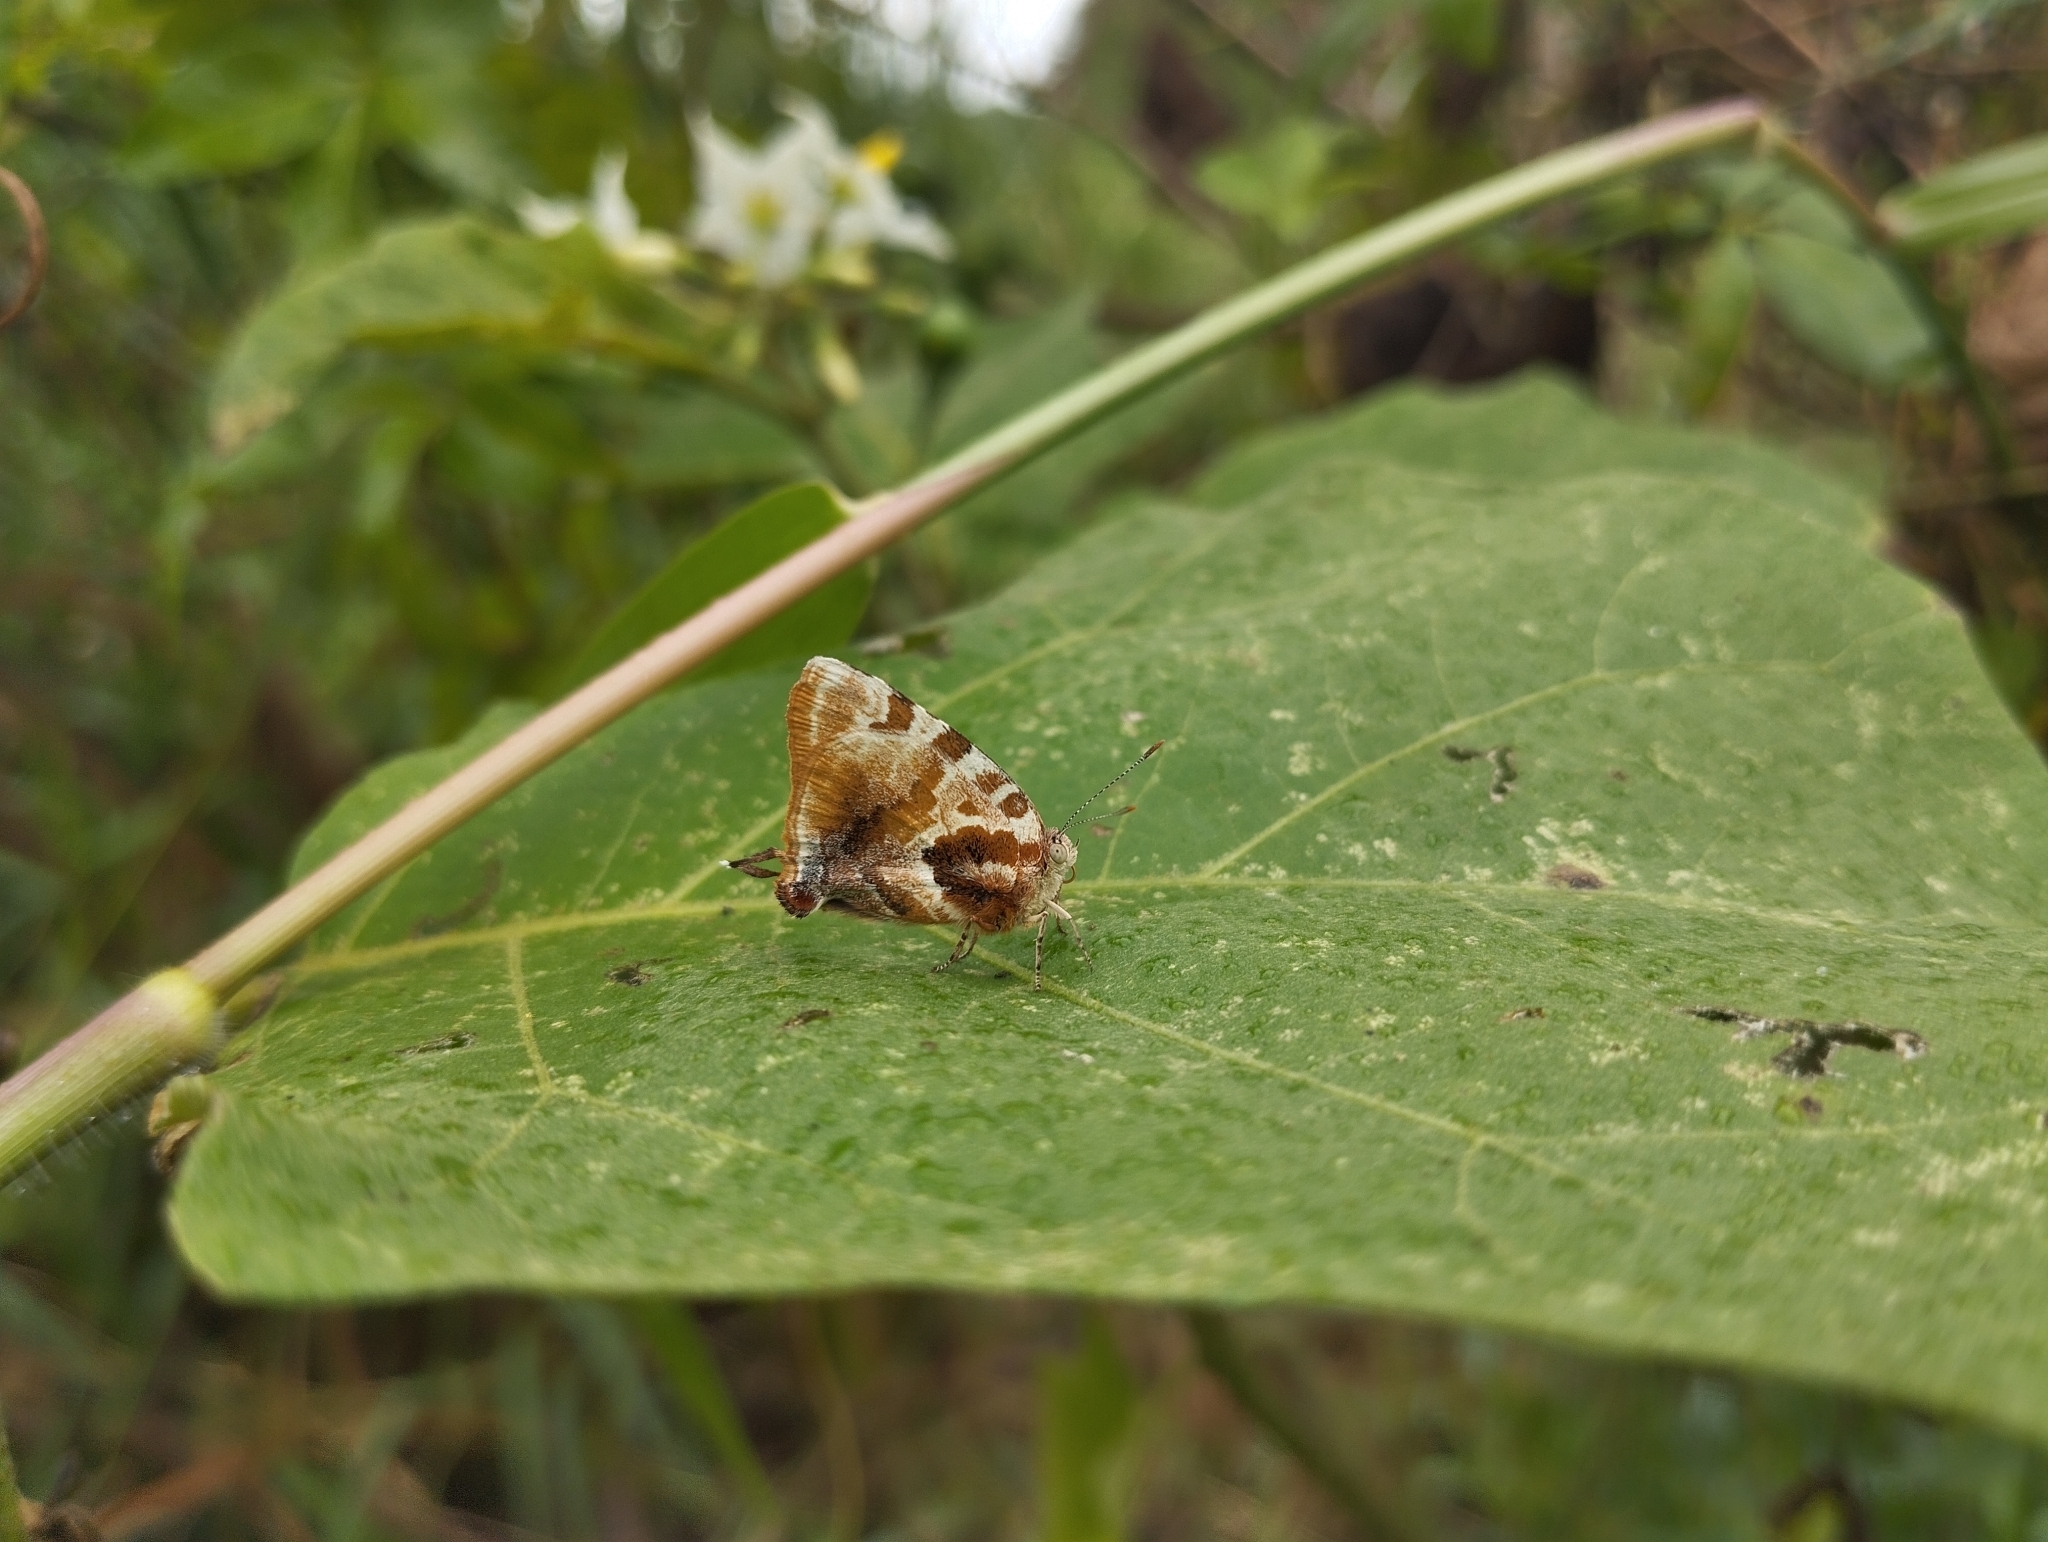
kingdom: Animalia
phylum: Arthropoda
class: Insecta
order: Lepidoptera
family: Lycaenidae
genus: Arawacus
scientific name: Arawacus ellida
